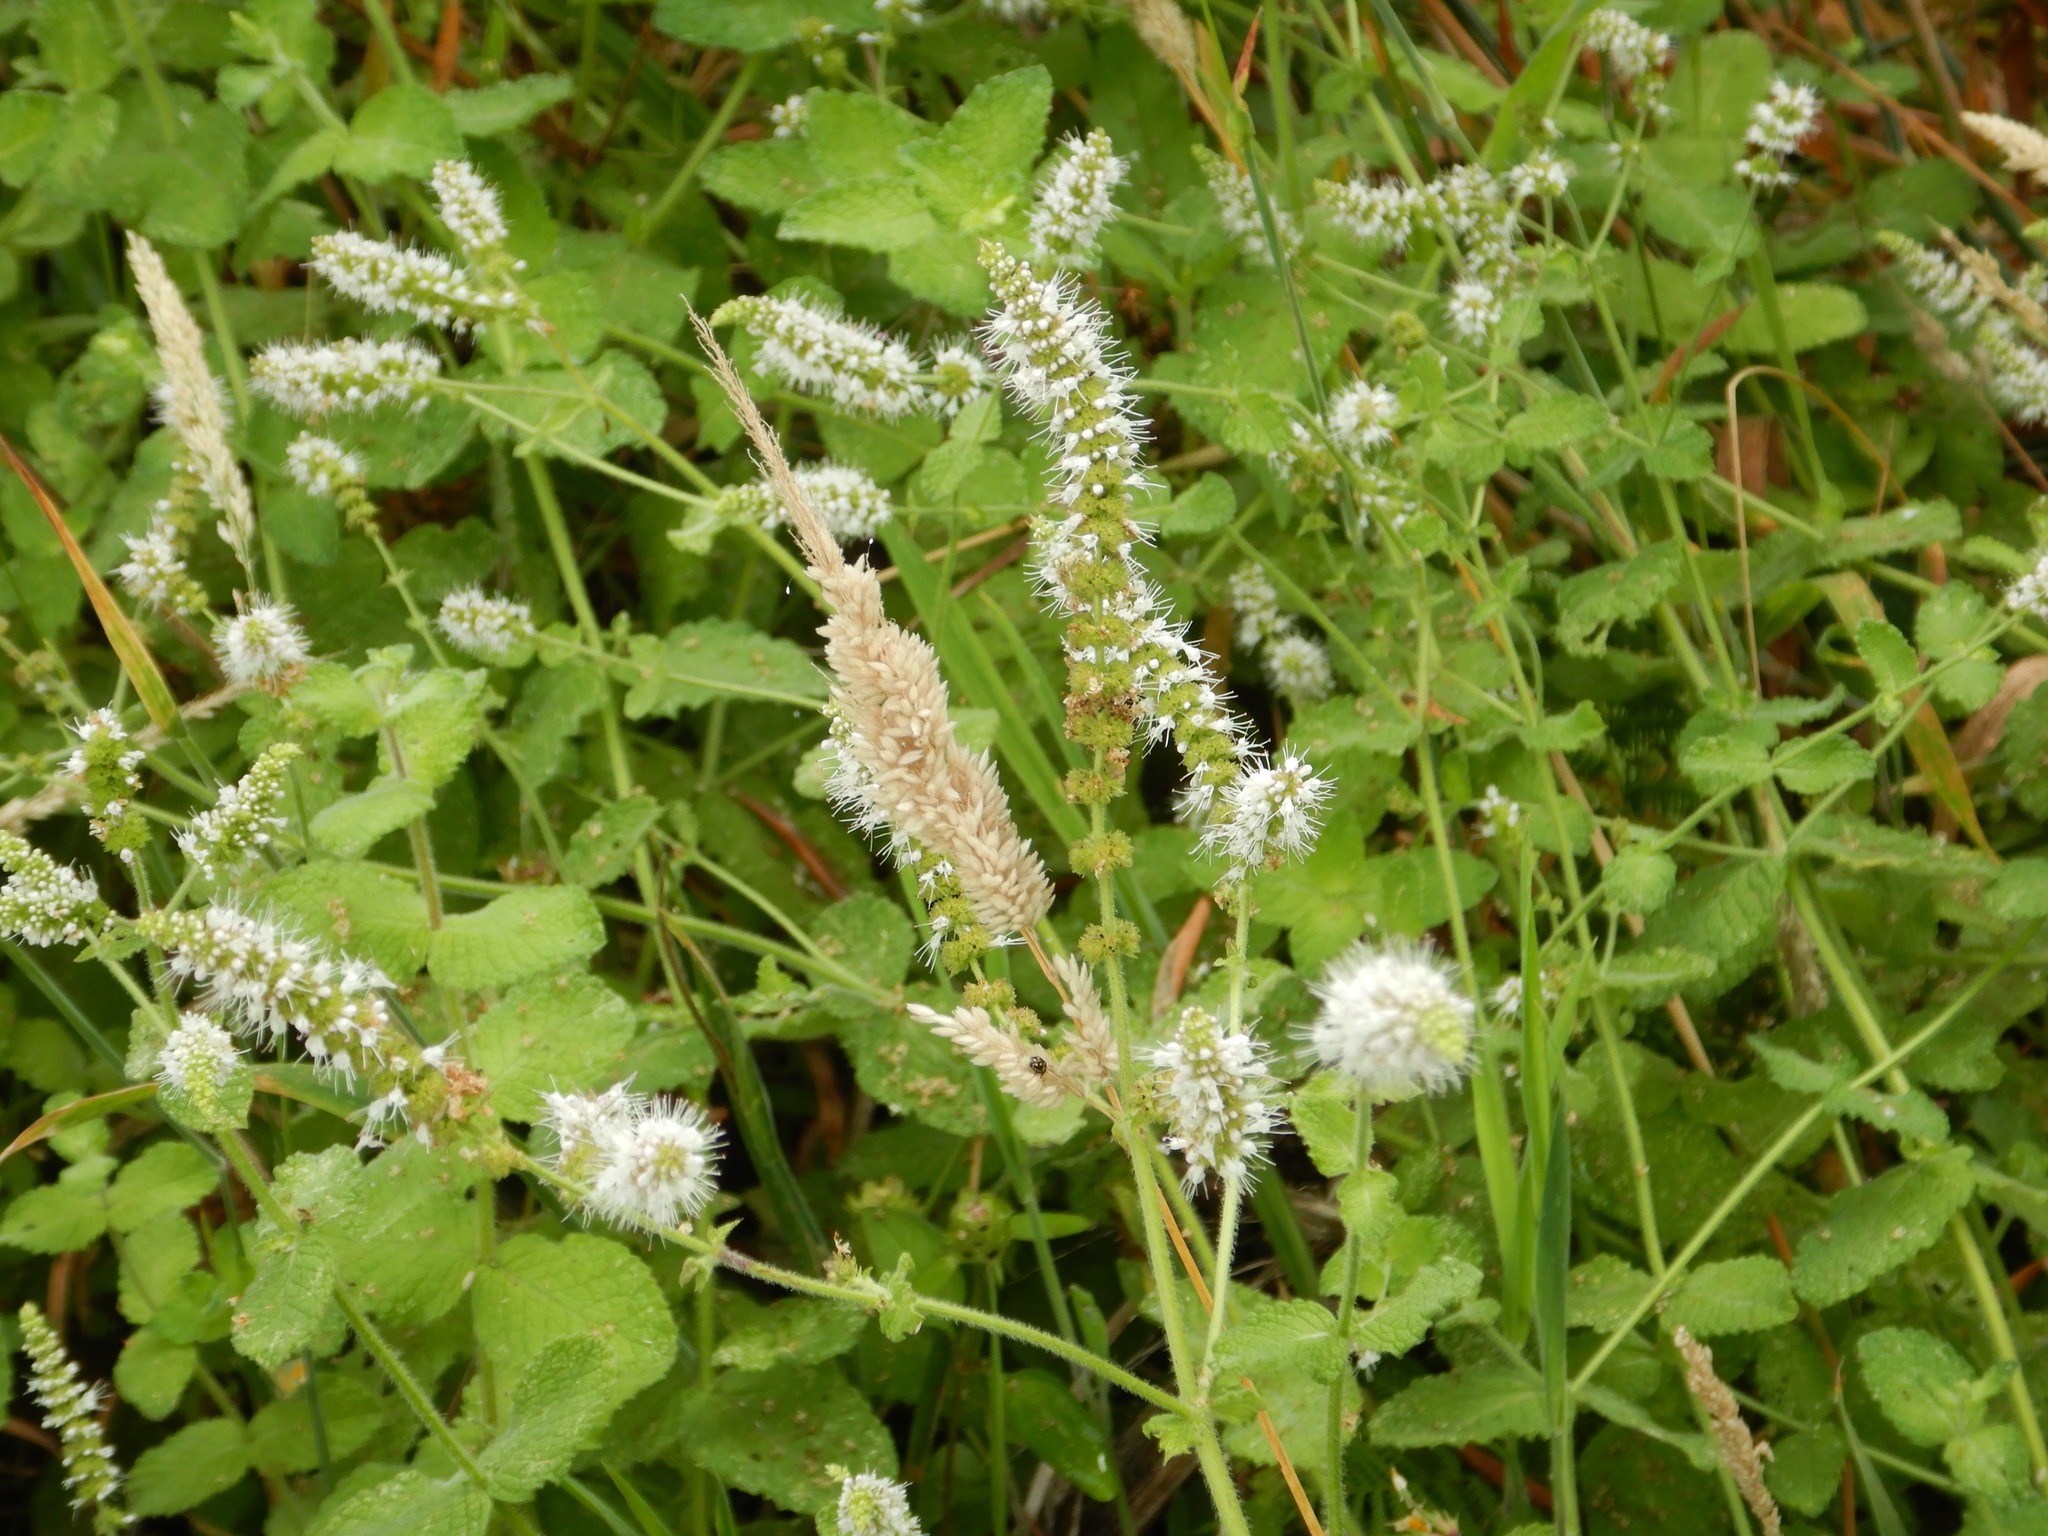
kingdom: Plantae
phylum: Tracheophyta
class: Magnoliopsida
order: Lamiales
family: Lamiaceae
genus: Mentha
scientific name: Mentha suaveolens
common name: Apple mint
